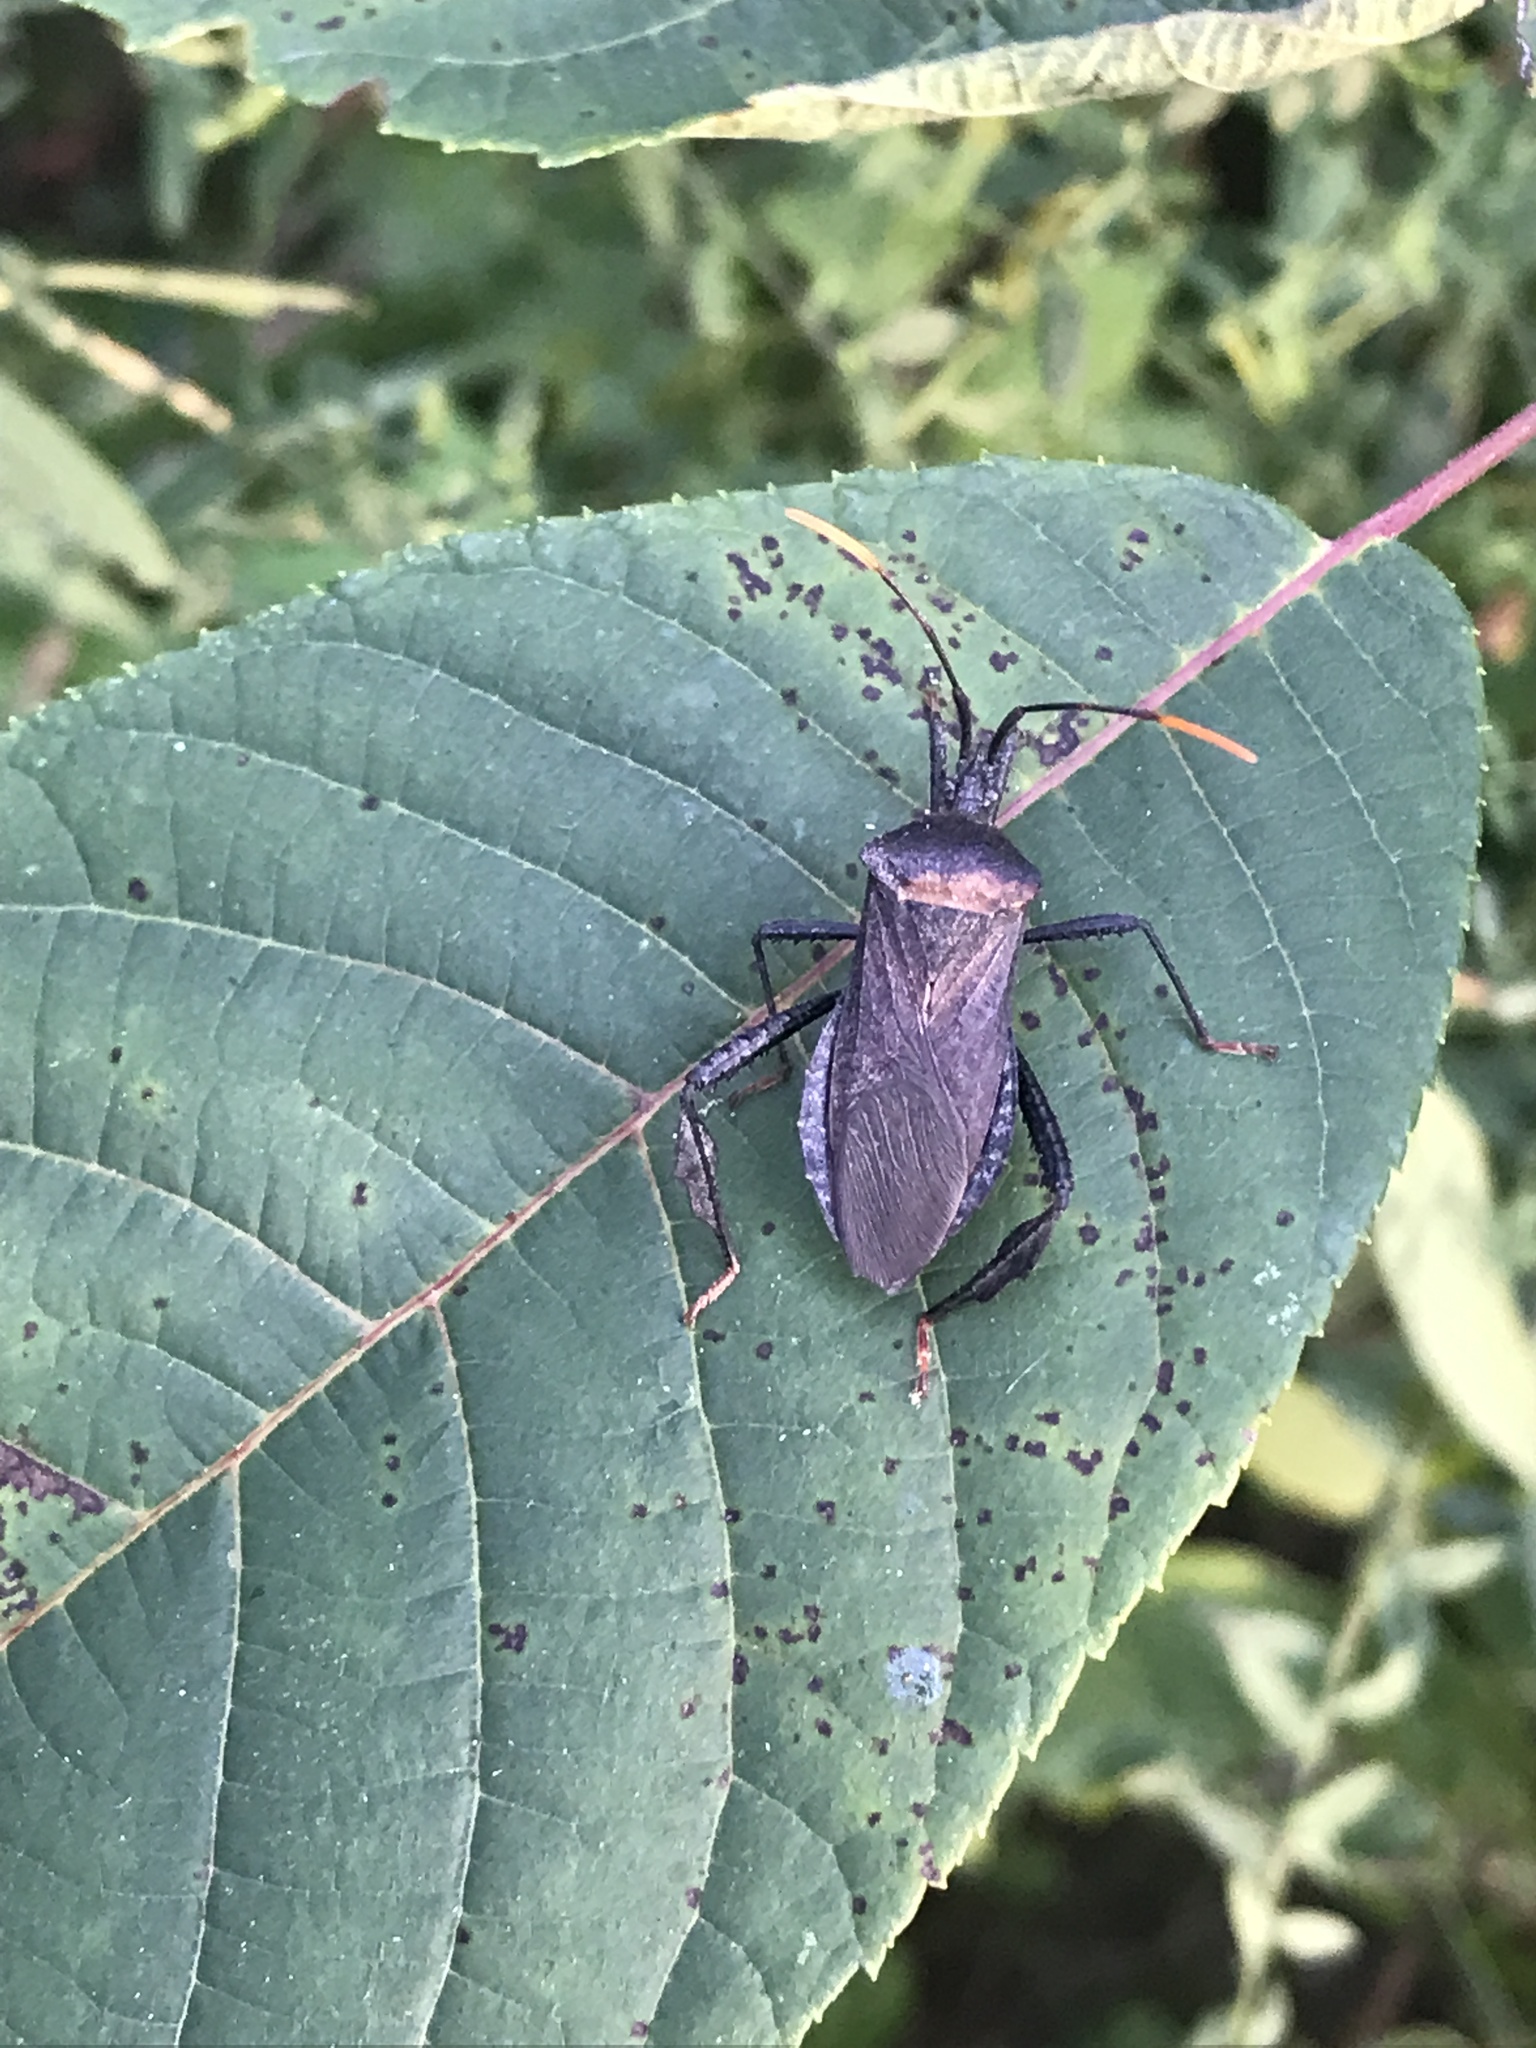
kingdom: Animalia
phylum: Arthropoda
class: Insecta
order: Hemiptera
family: Coreidae
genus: Acanthocephala
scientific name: Acanthocephala terminalis
